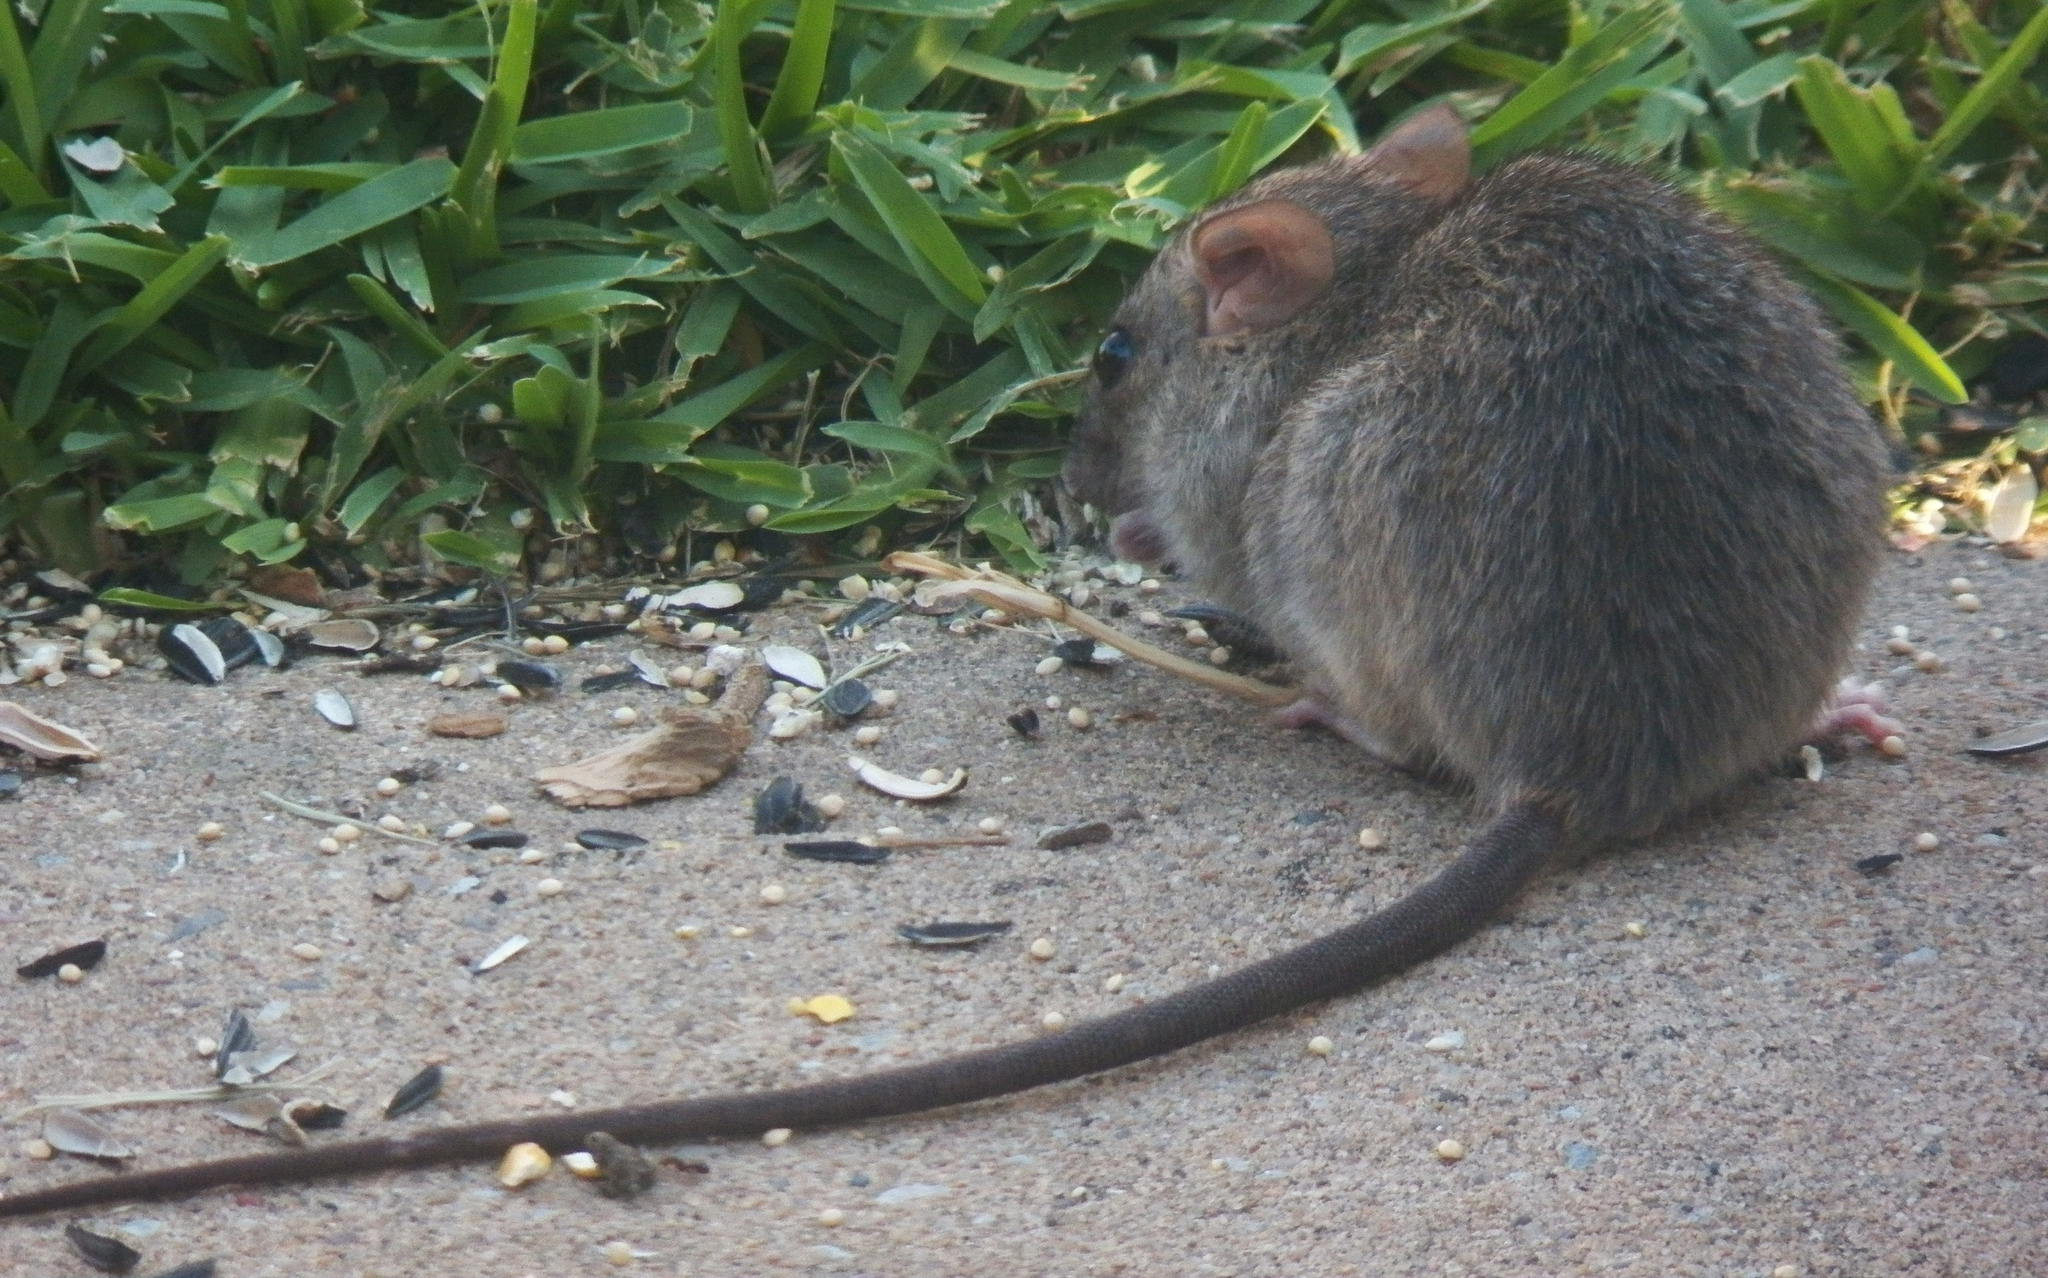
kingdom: Animalia
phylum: Chordata
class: Mammalia
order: Rodentia
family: Muridae
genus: Rattus
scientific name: Rattus rattus
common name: Black rat
